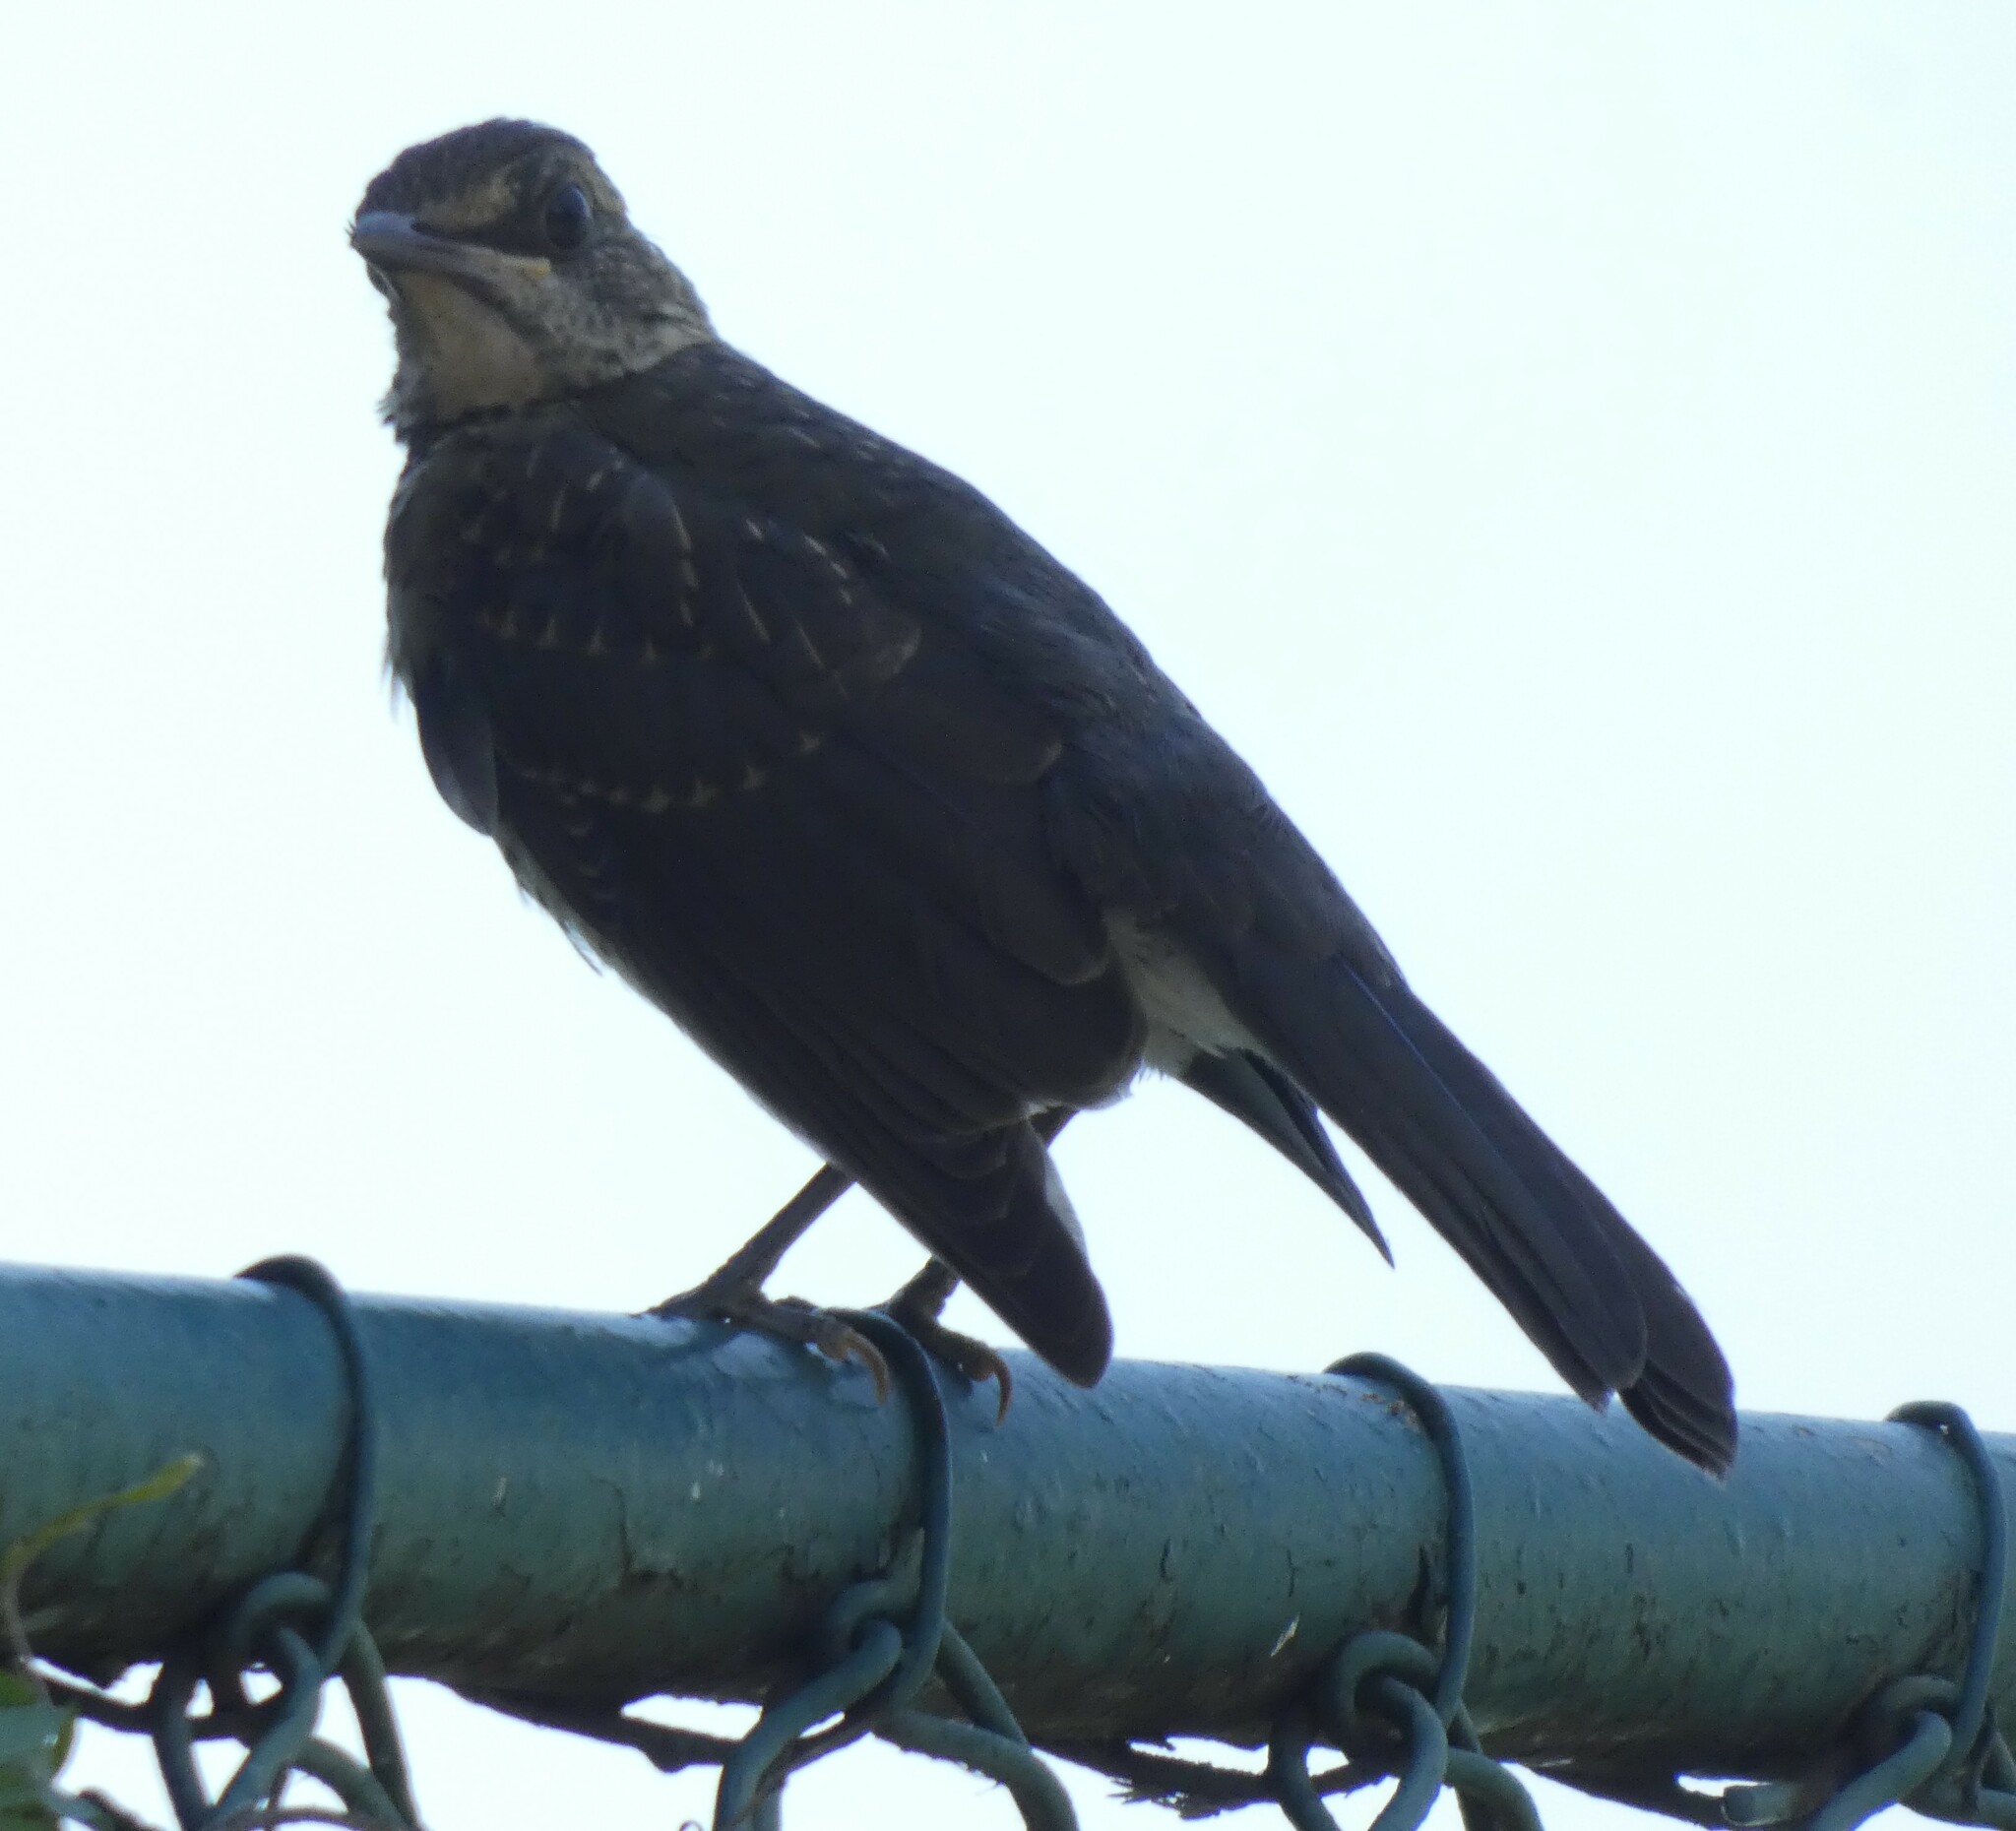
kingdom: Animalia
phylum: Chordata
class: Aves
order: Passeriformes
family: Turdidae
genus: Turdus
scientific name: Turdus amaurochalinus
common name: Creamy-bellied thrush
